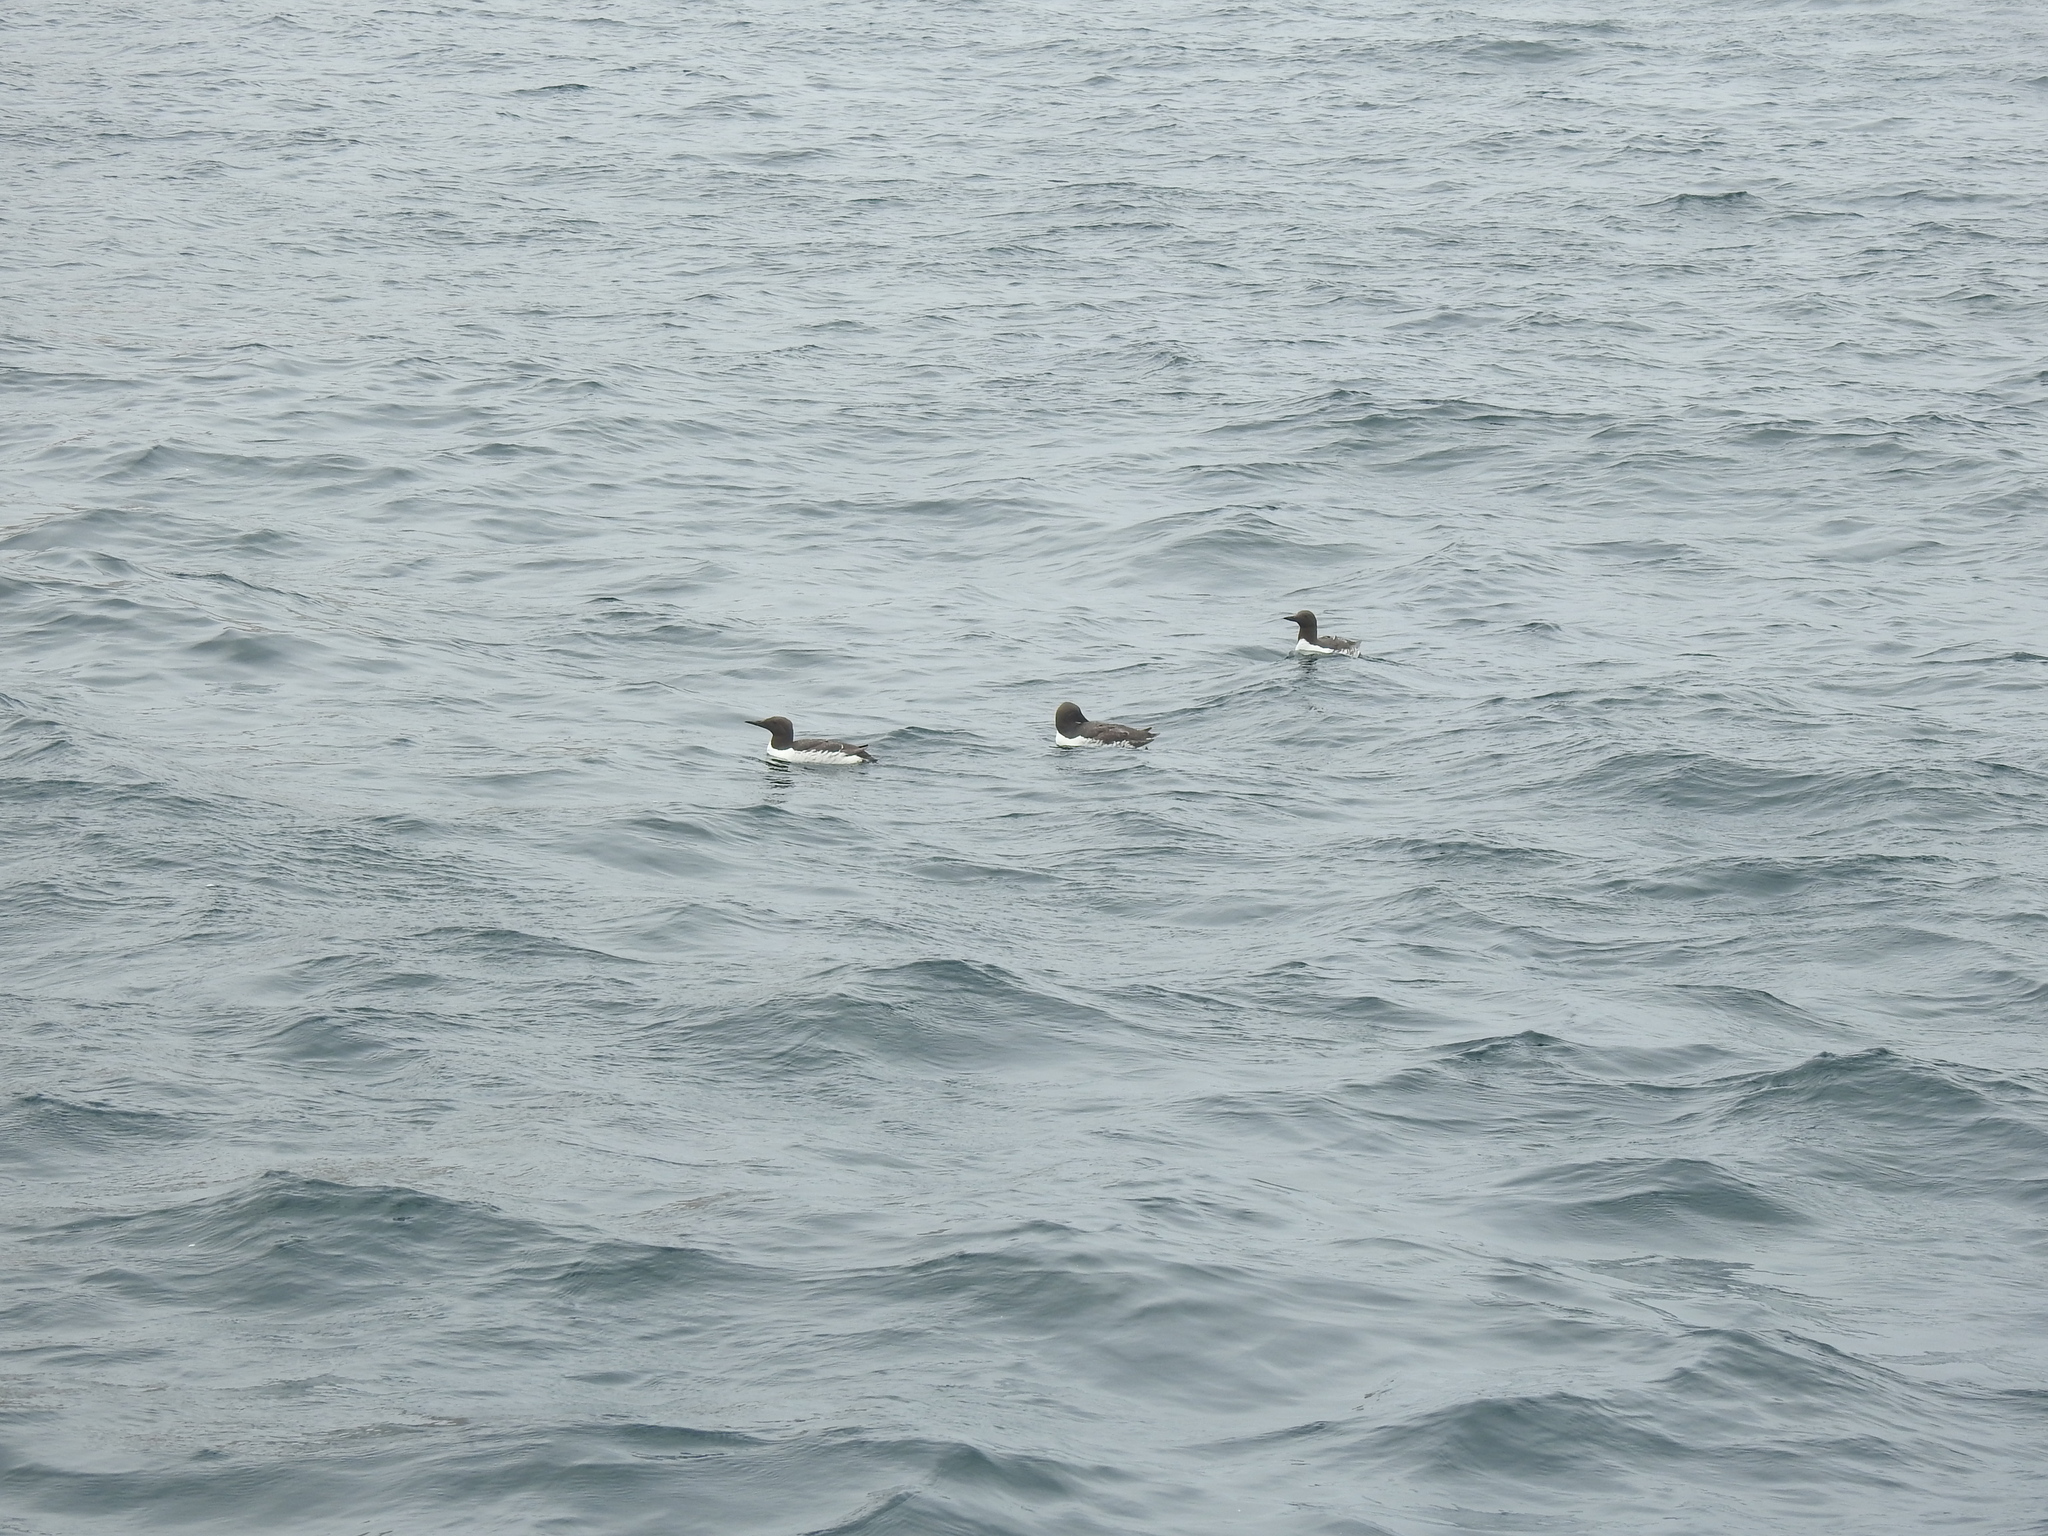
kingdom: Animalia
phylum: Chordata
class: Aves
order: Charadriiformes
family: Alcidae
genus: Uria
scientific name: Uria aalge
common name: Common murre
